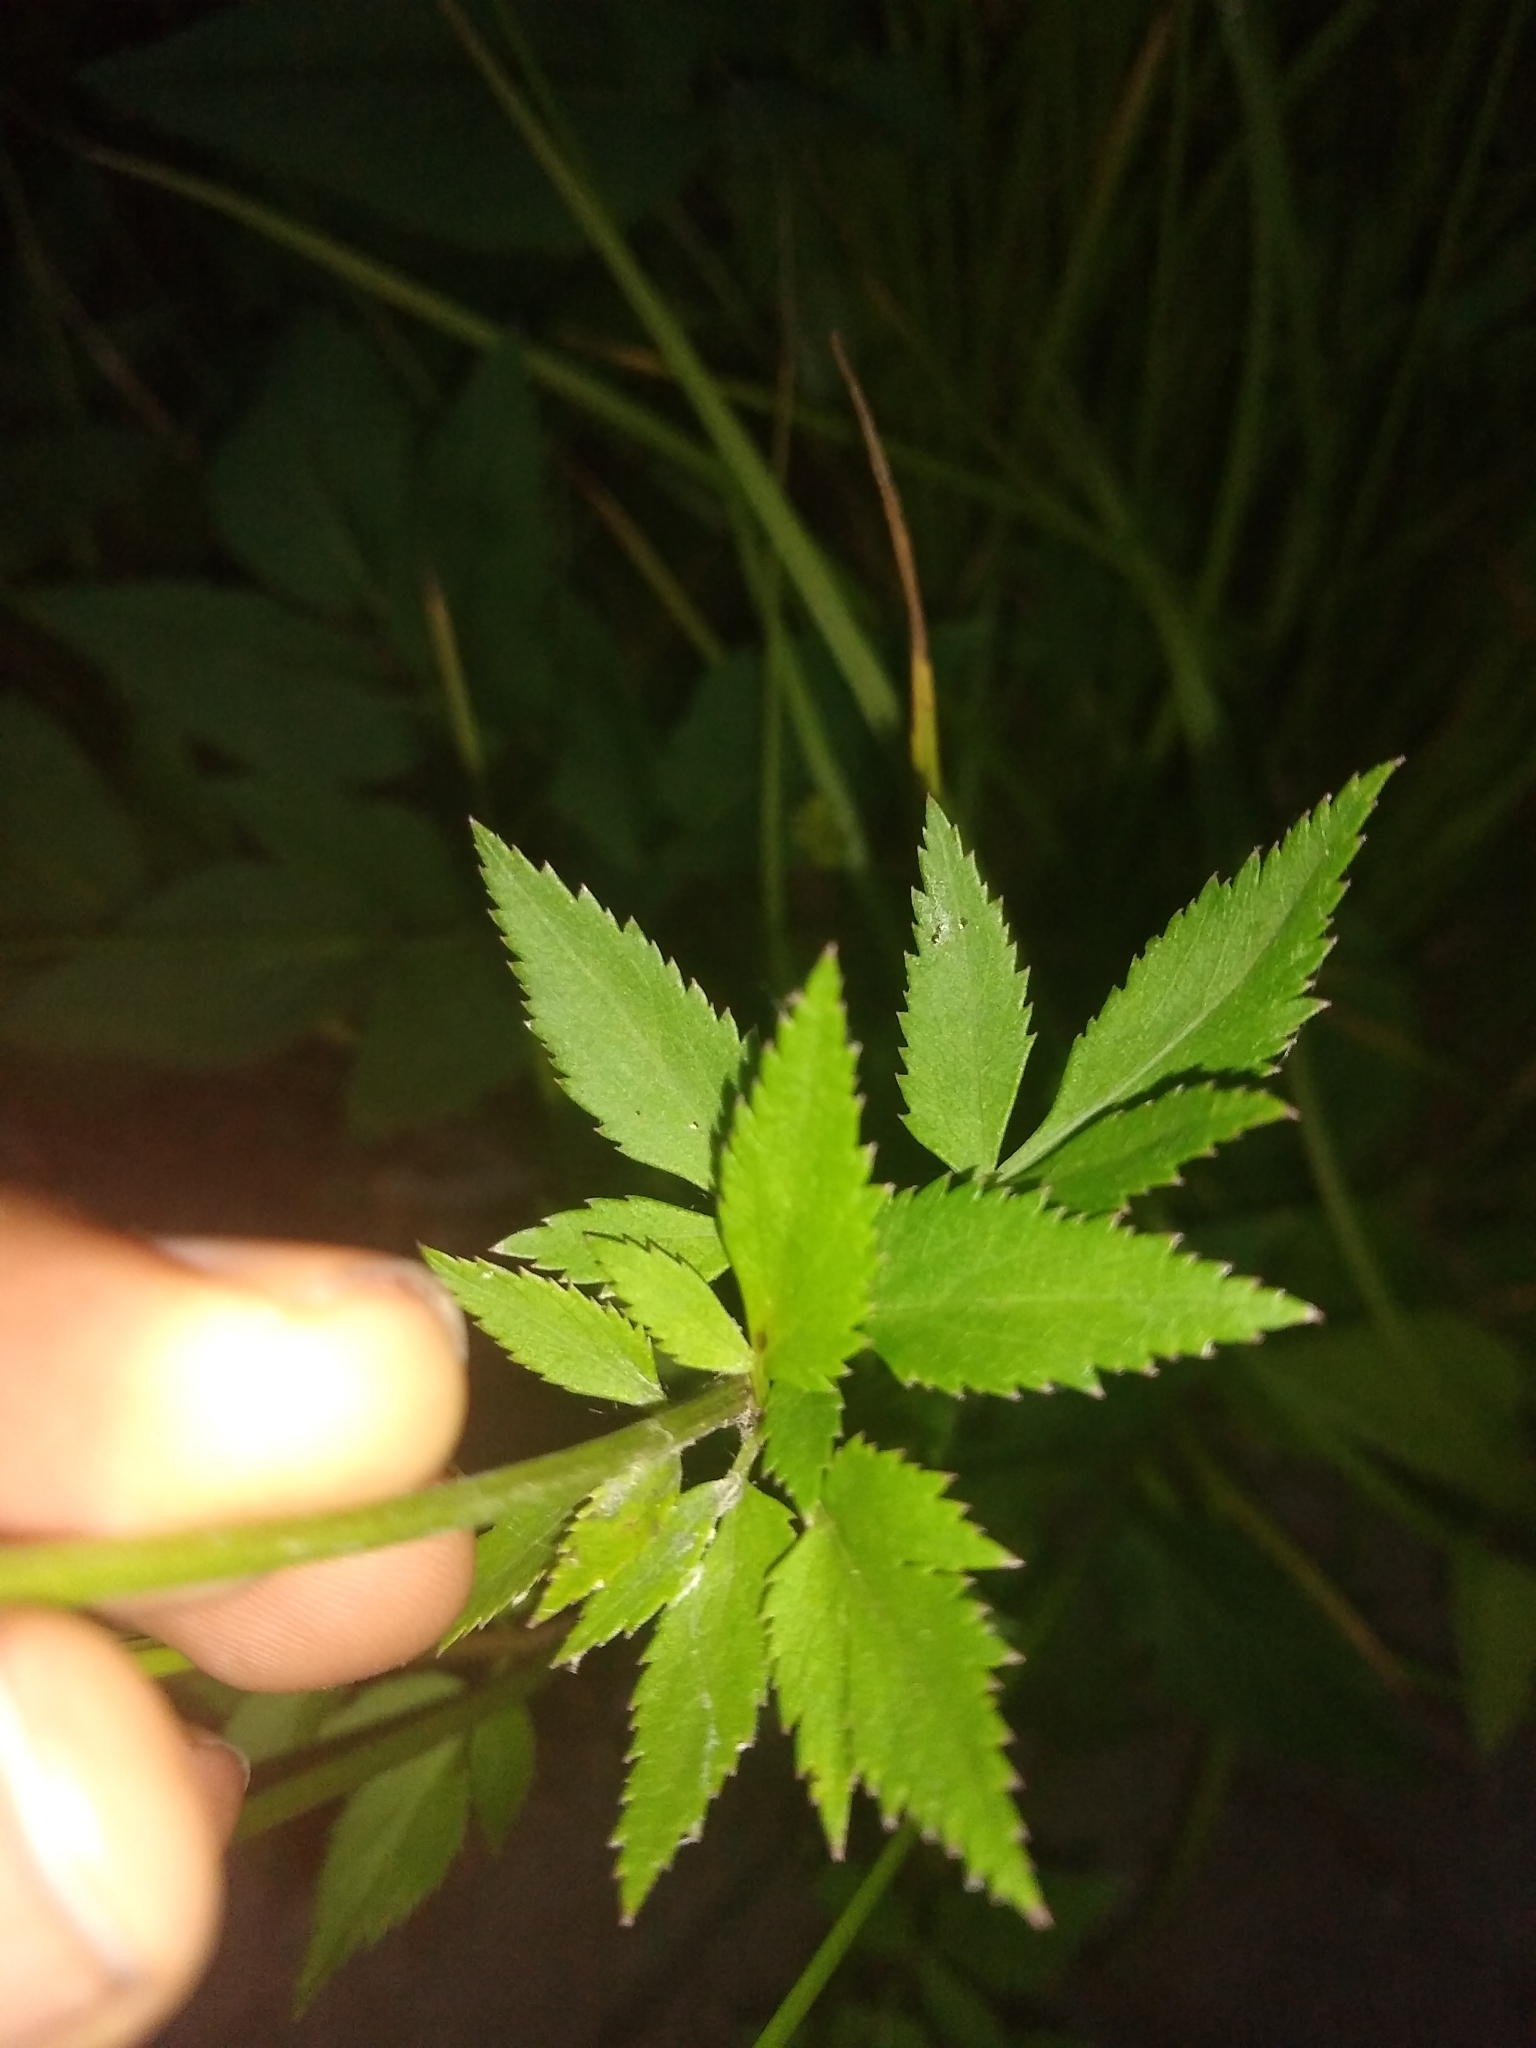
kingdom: Plantae
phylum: Tracheophyta
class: Magnoliopsida
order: Apiales
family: Apiaceae
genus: Zizia
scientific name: Zizia aurea
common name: Golden alexanders
